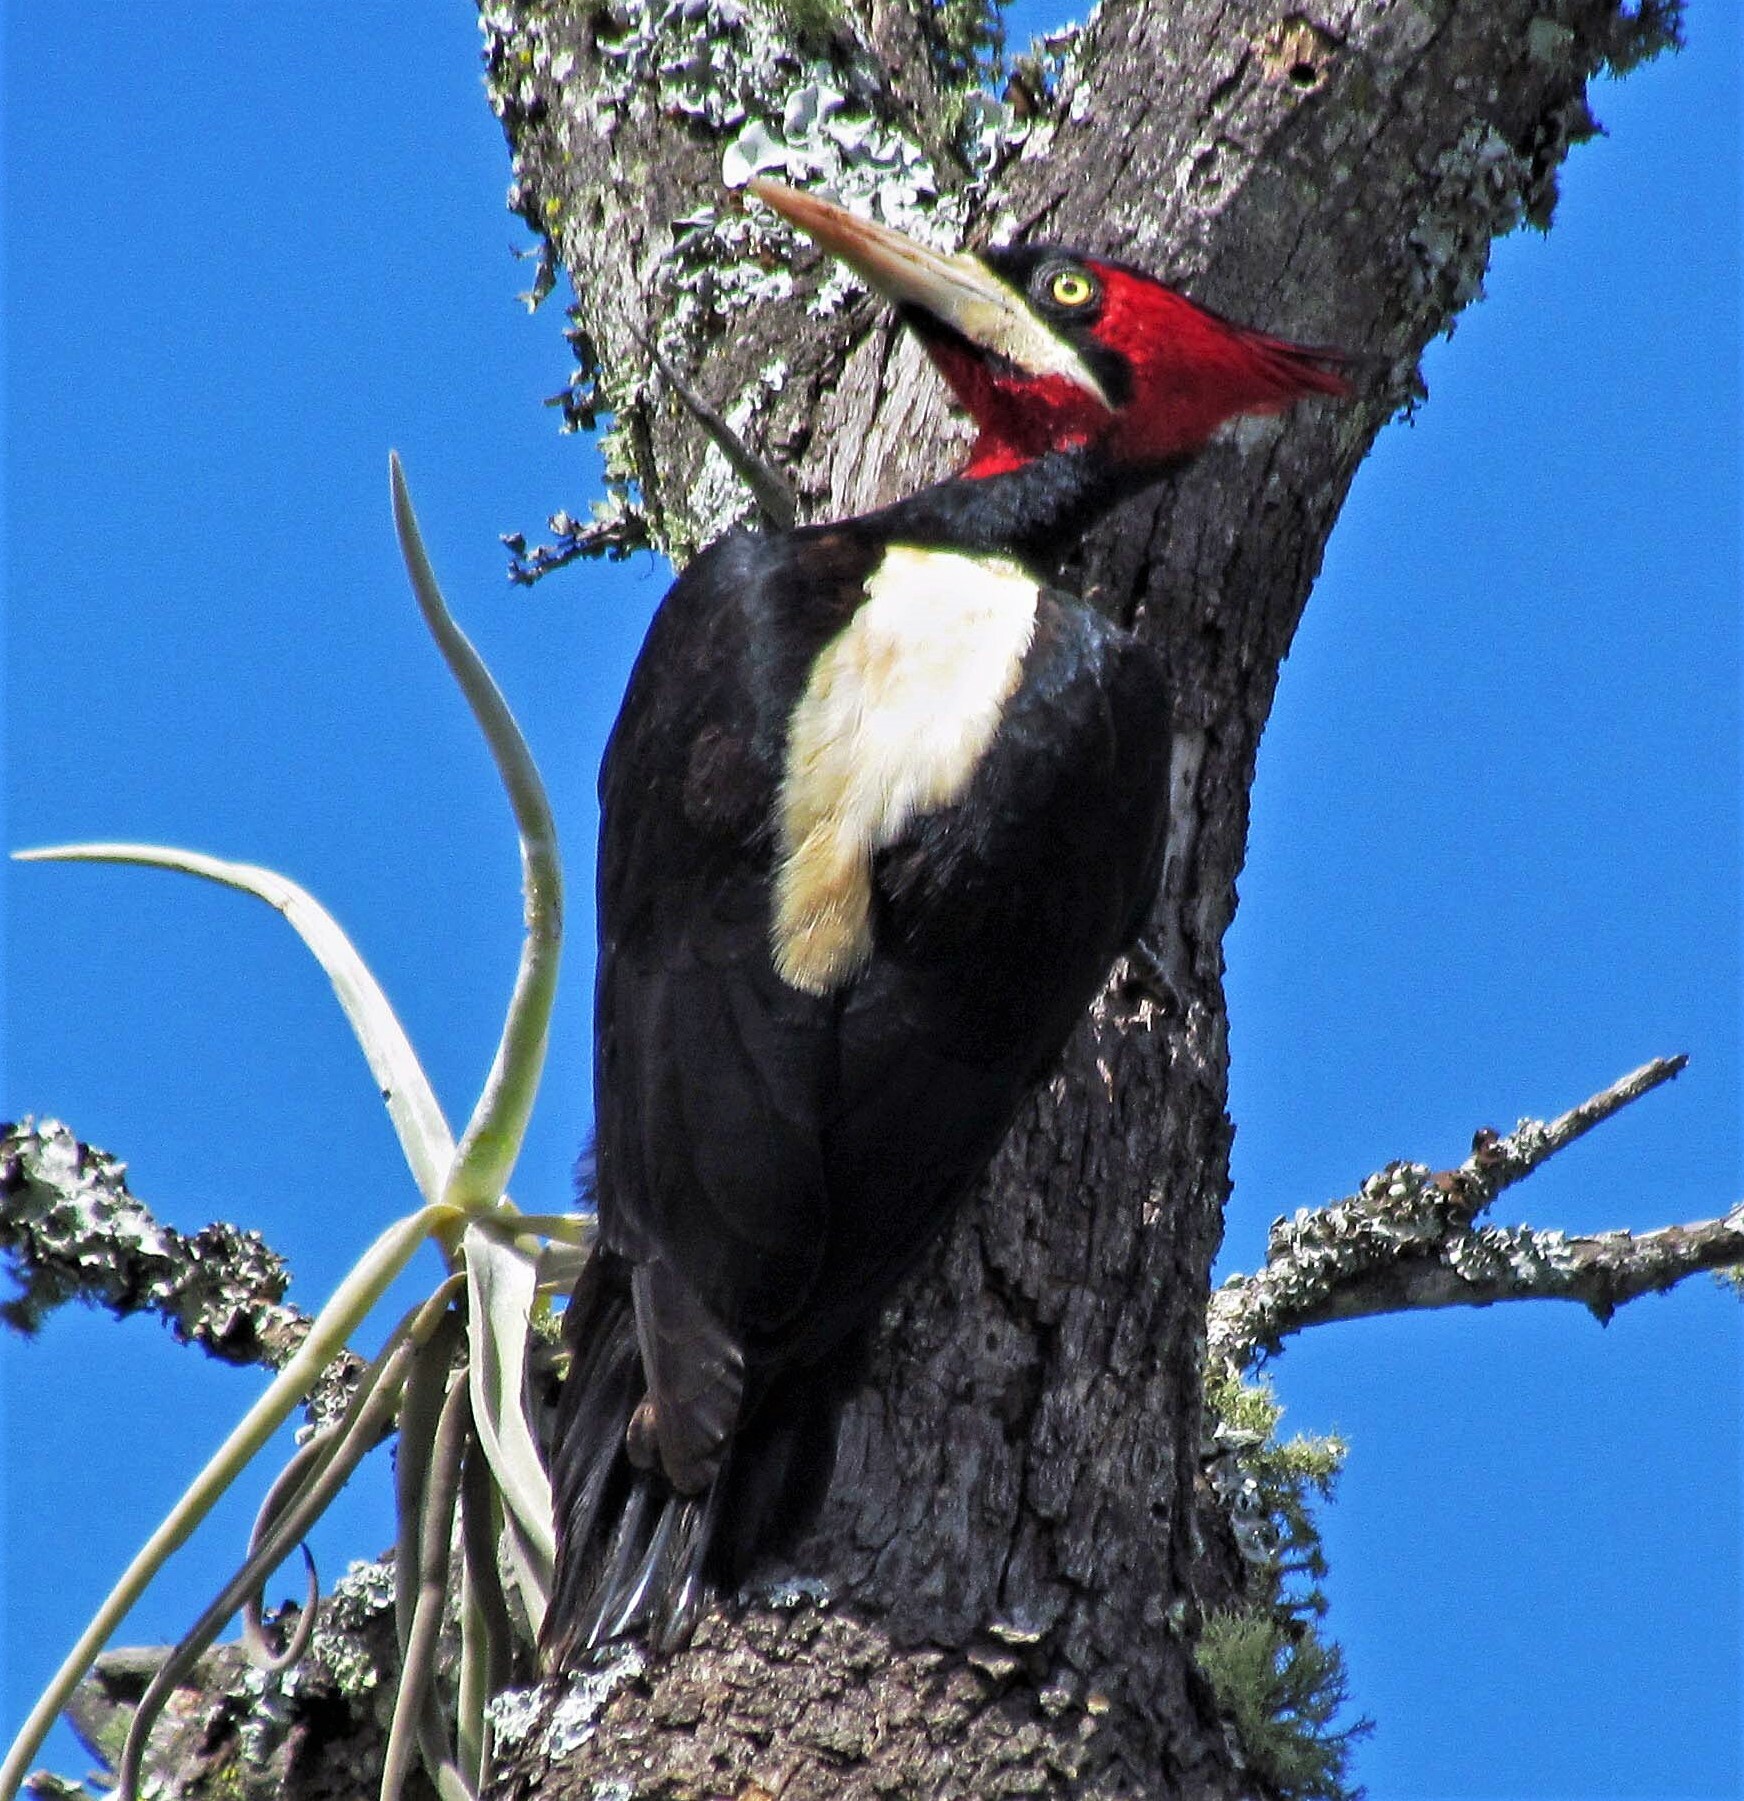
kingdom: Animalia
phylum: Chordata
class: Aves
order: Piciformes
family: Picidae
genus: Campephilus
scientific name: Campephilus leucopogon
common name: Cream-backed woodpecker
